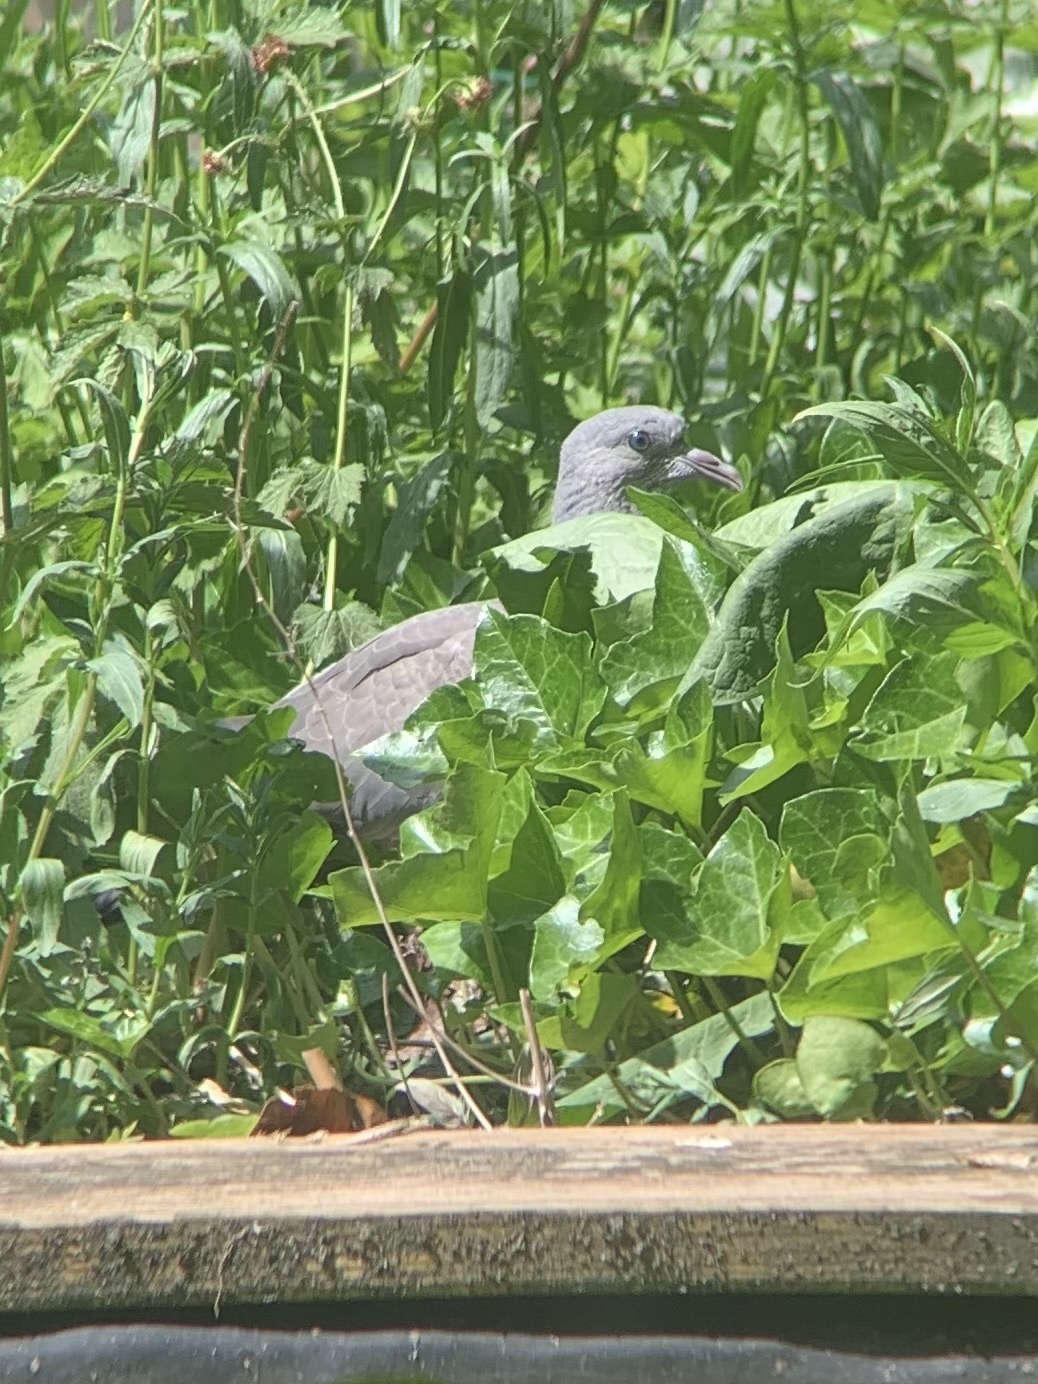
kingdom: Animalia
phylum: Chordata
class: Aves
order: Columbiformes
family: Columbidae
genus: Columba
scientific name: Columba palumbus
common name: Common wood pigeon
